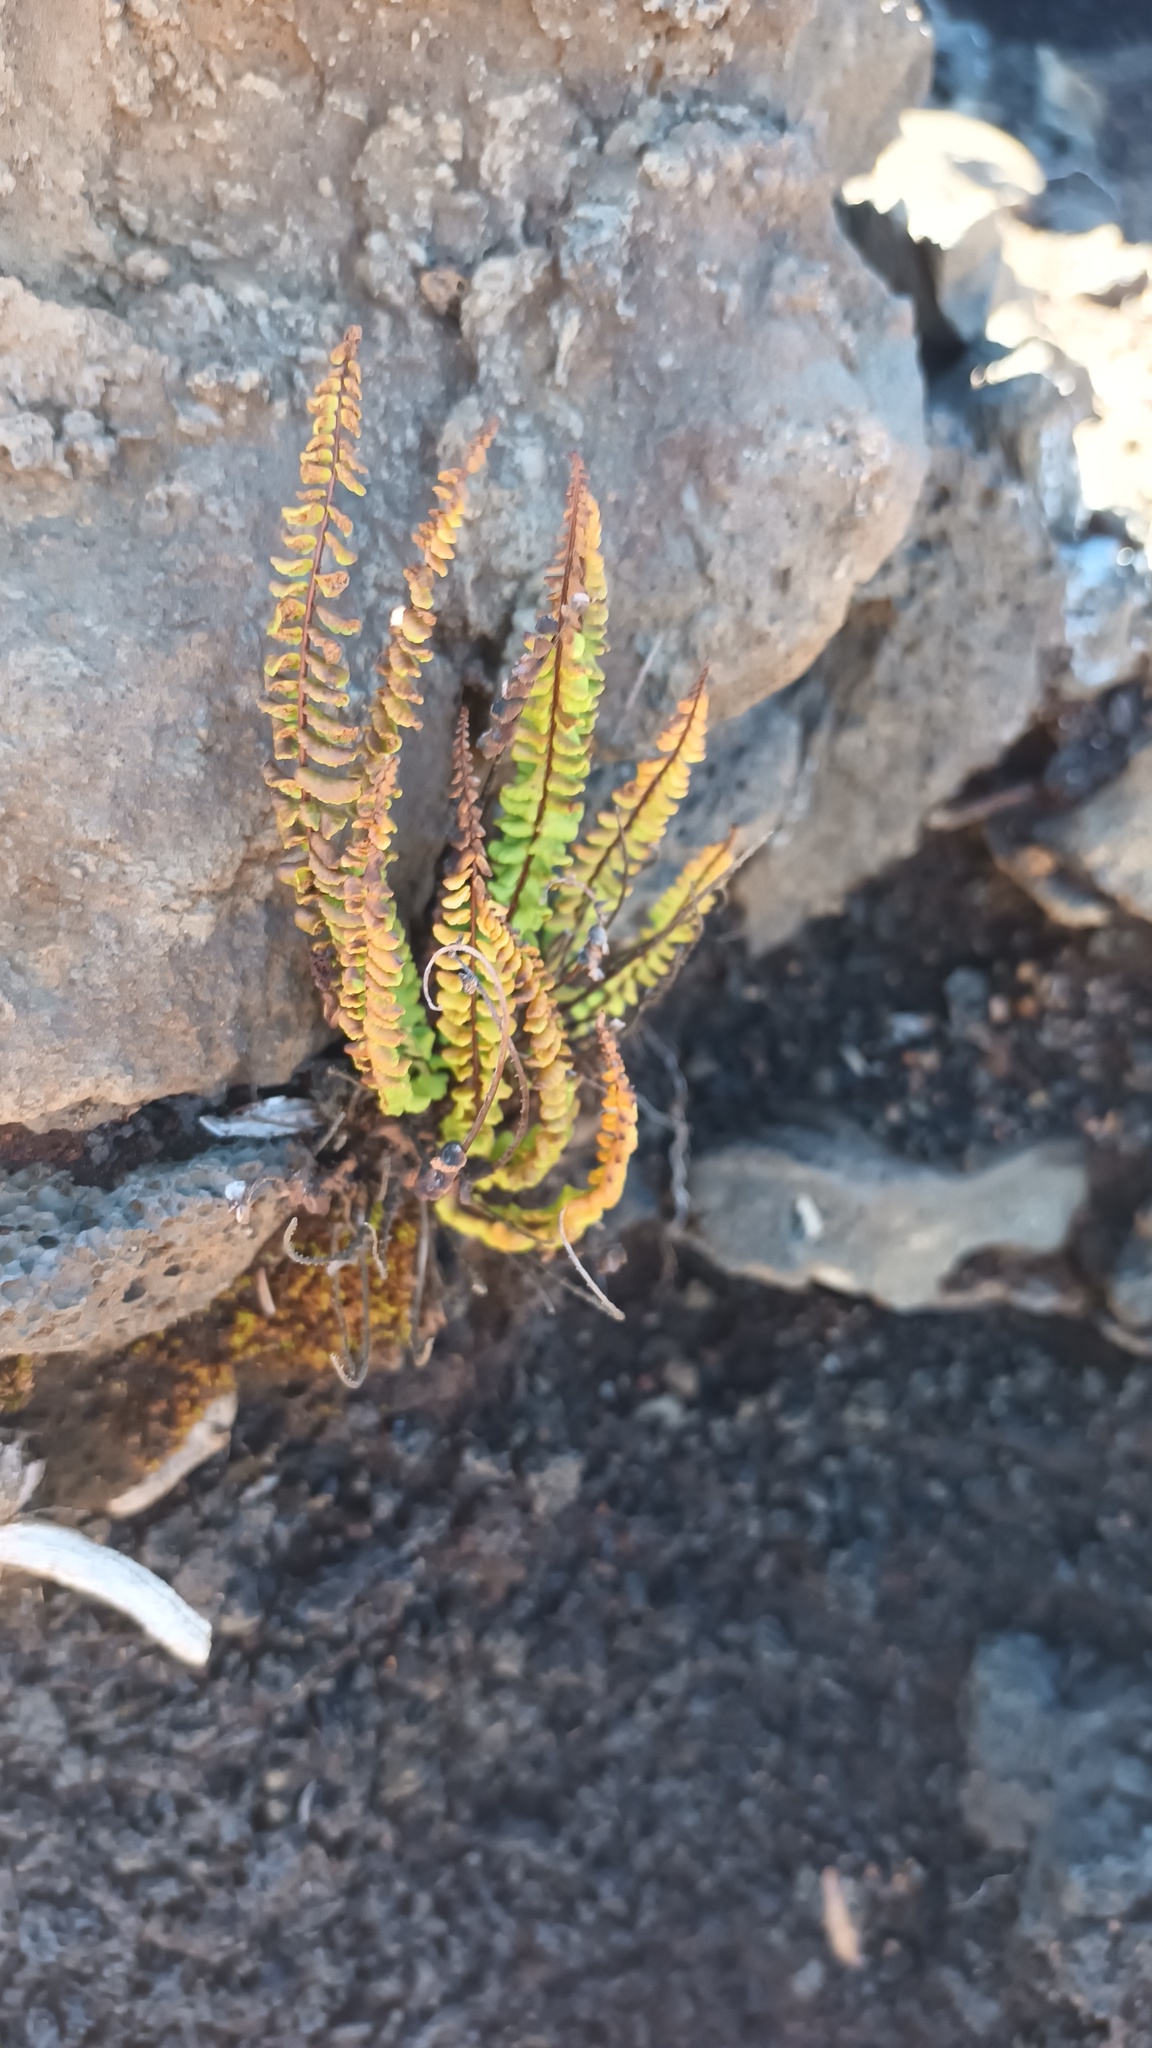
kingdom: Plantae
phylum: Tracheophyta
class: Polypodiopsida
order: Polypodiales
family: Aspleniaceae
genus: Asplenium
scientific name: Asplenium trichomanes
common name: Maidenhair spleenwort
